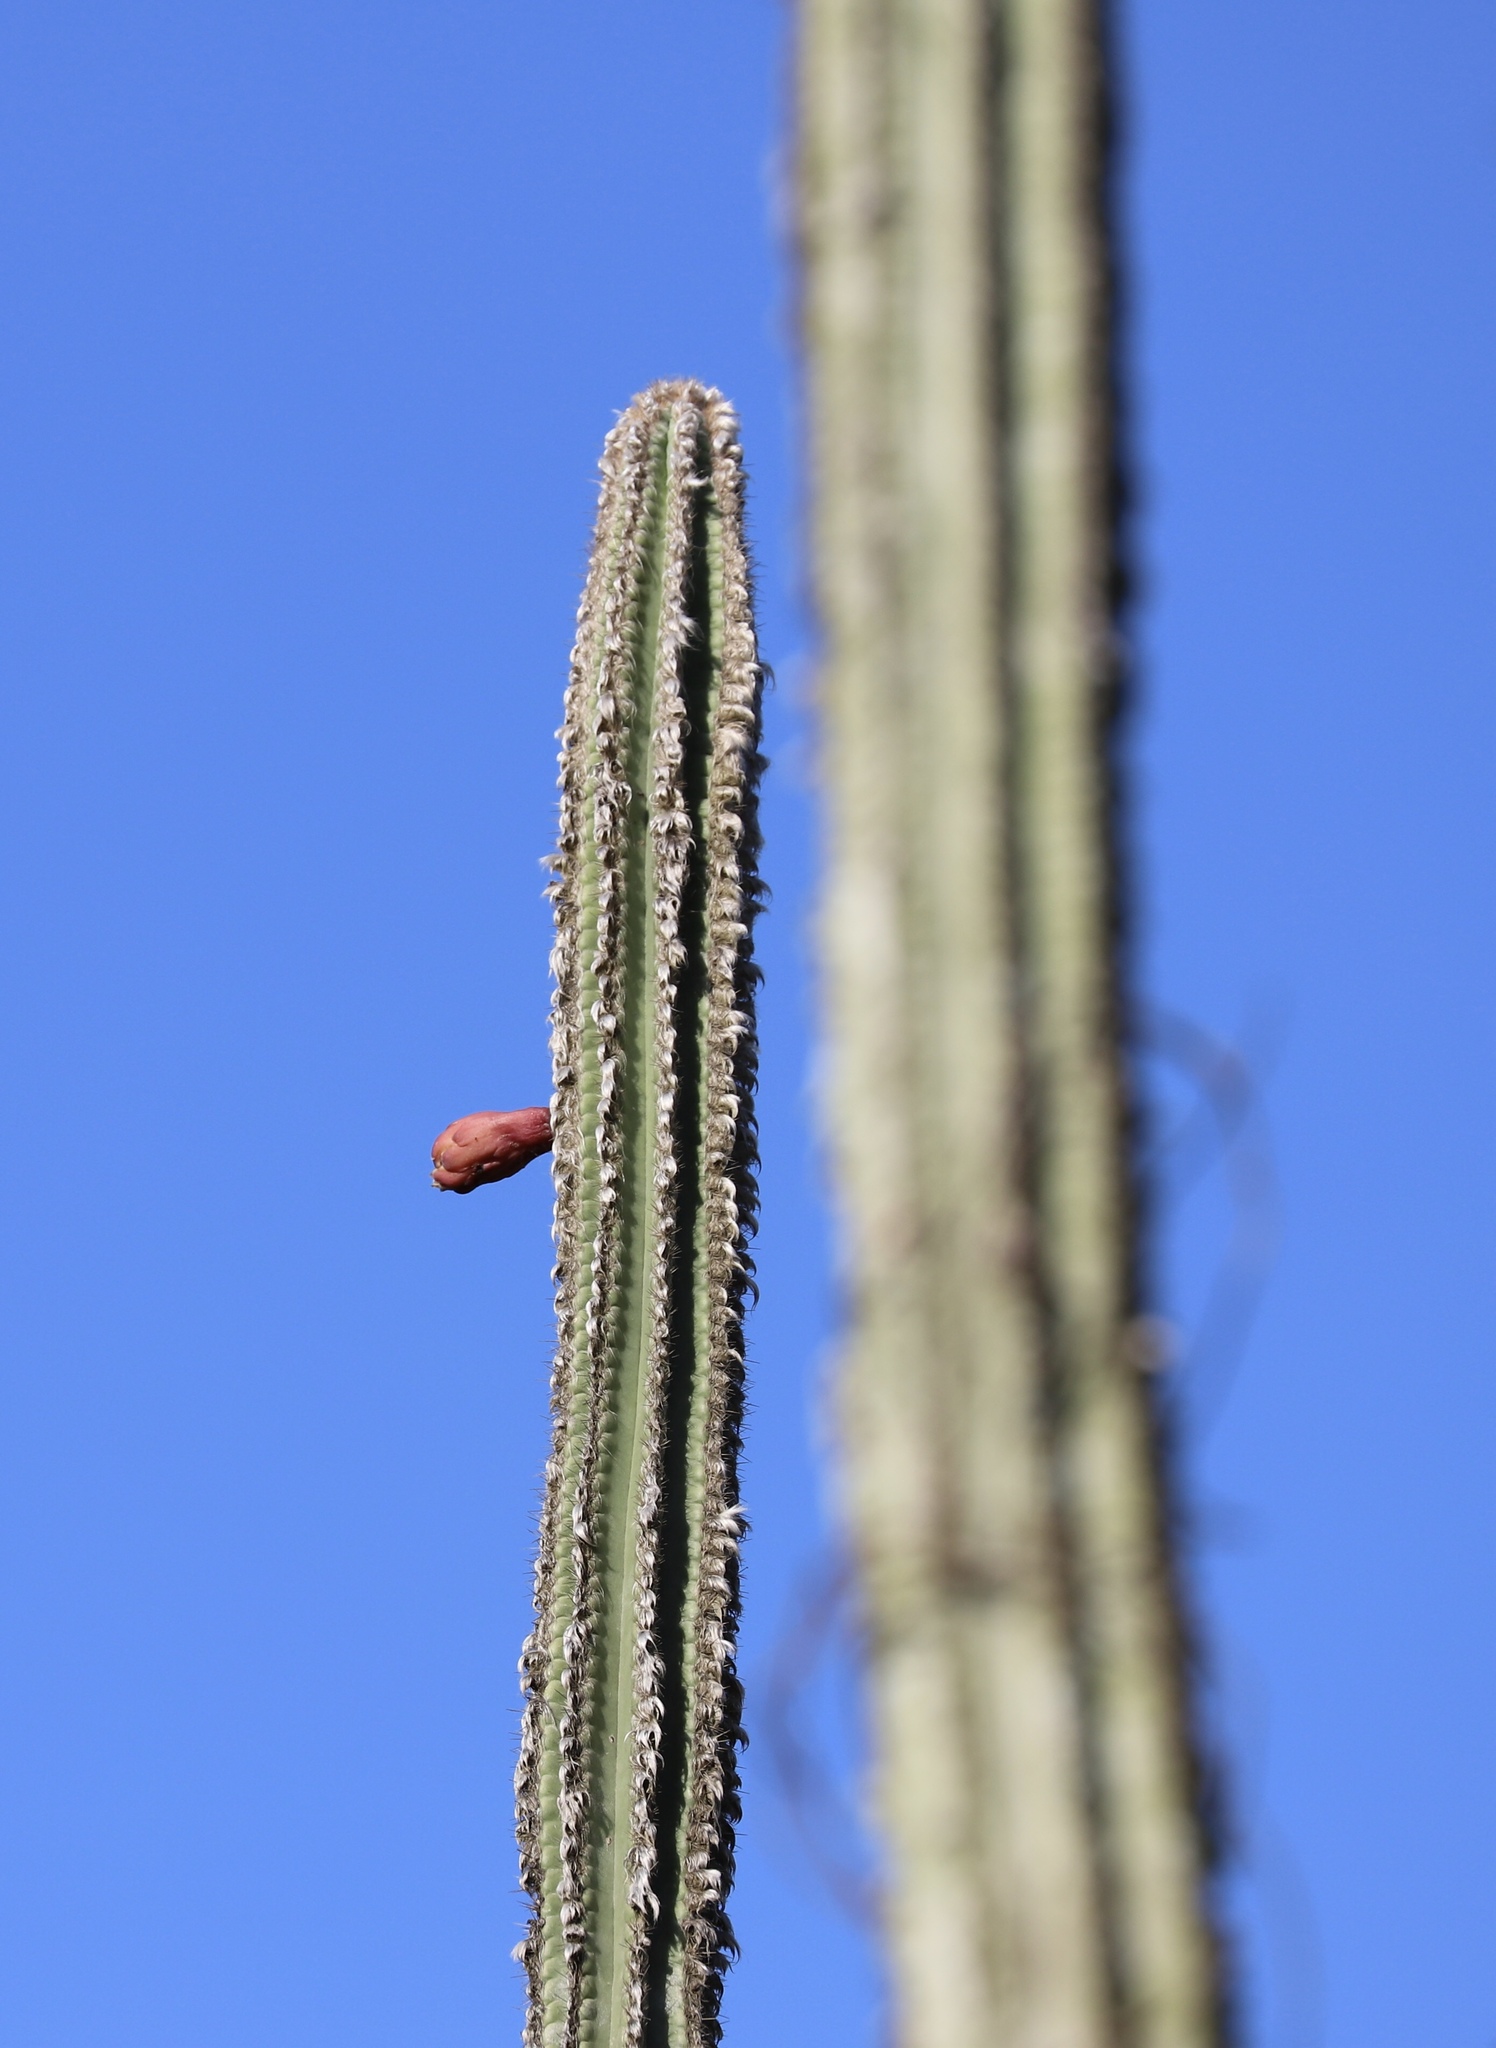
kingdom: Plantae
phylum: Tracheophyta
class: Magnoliopsida
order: Caryophyllales
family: Cactaceae
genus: Pilosocereus
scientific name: Pilosocereus polygonus
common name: Key tree cactus
